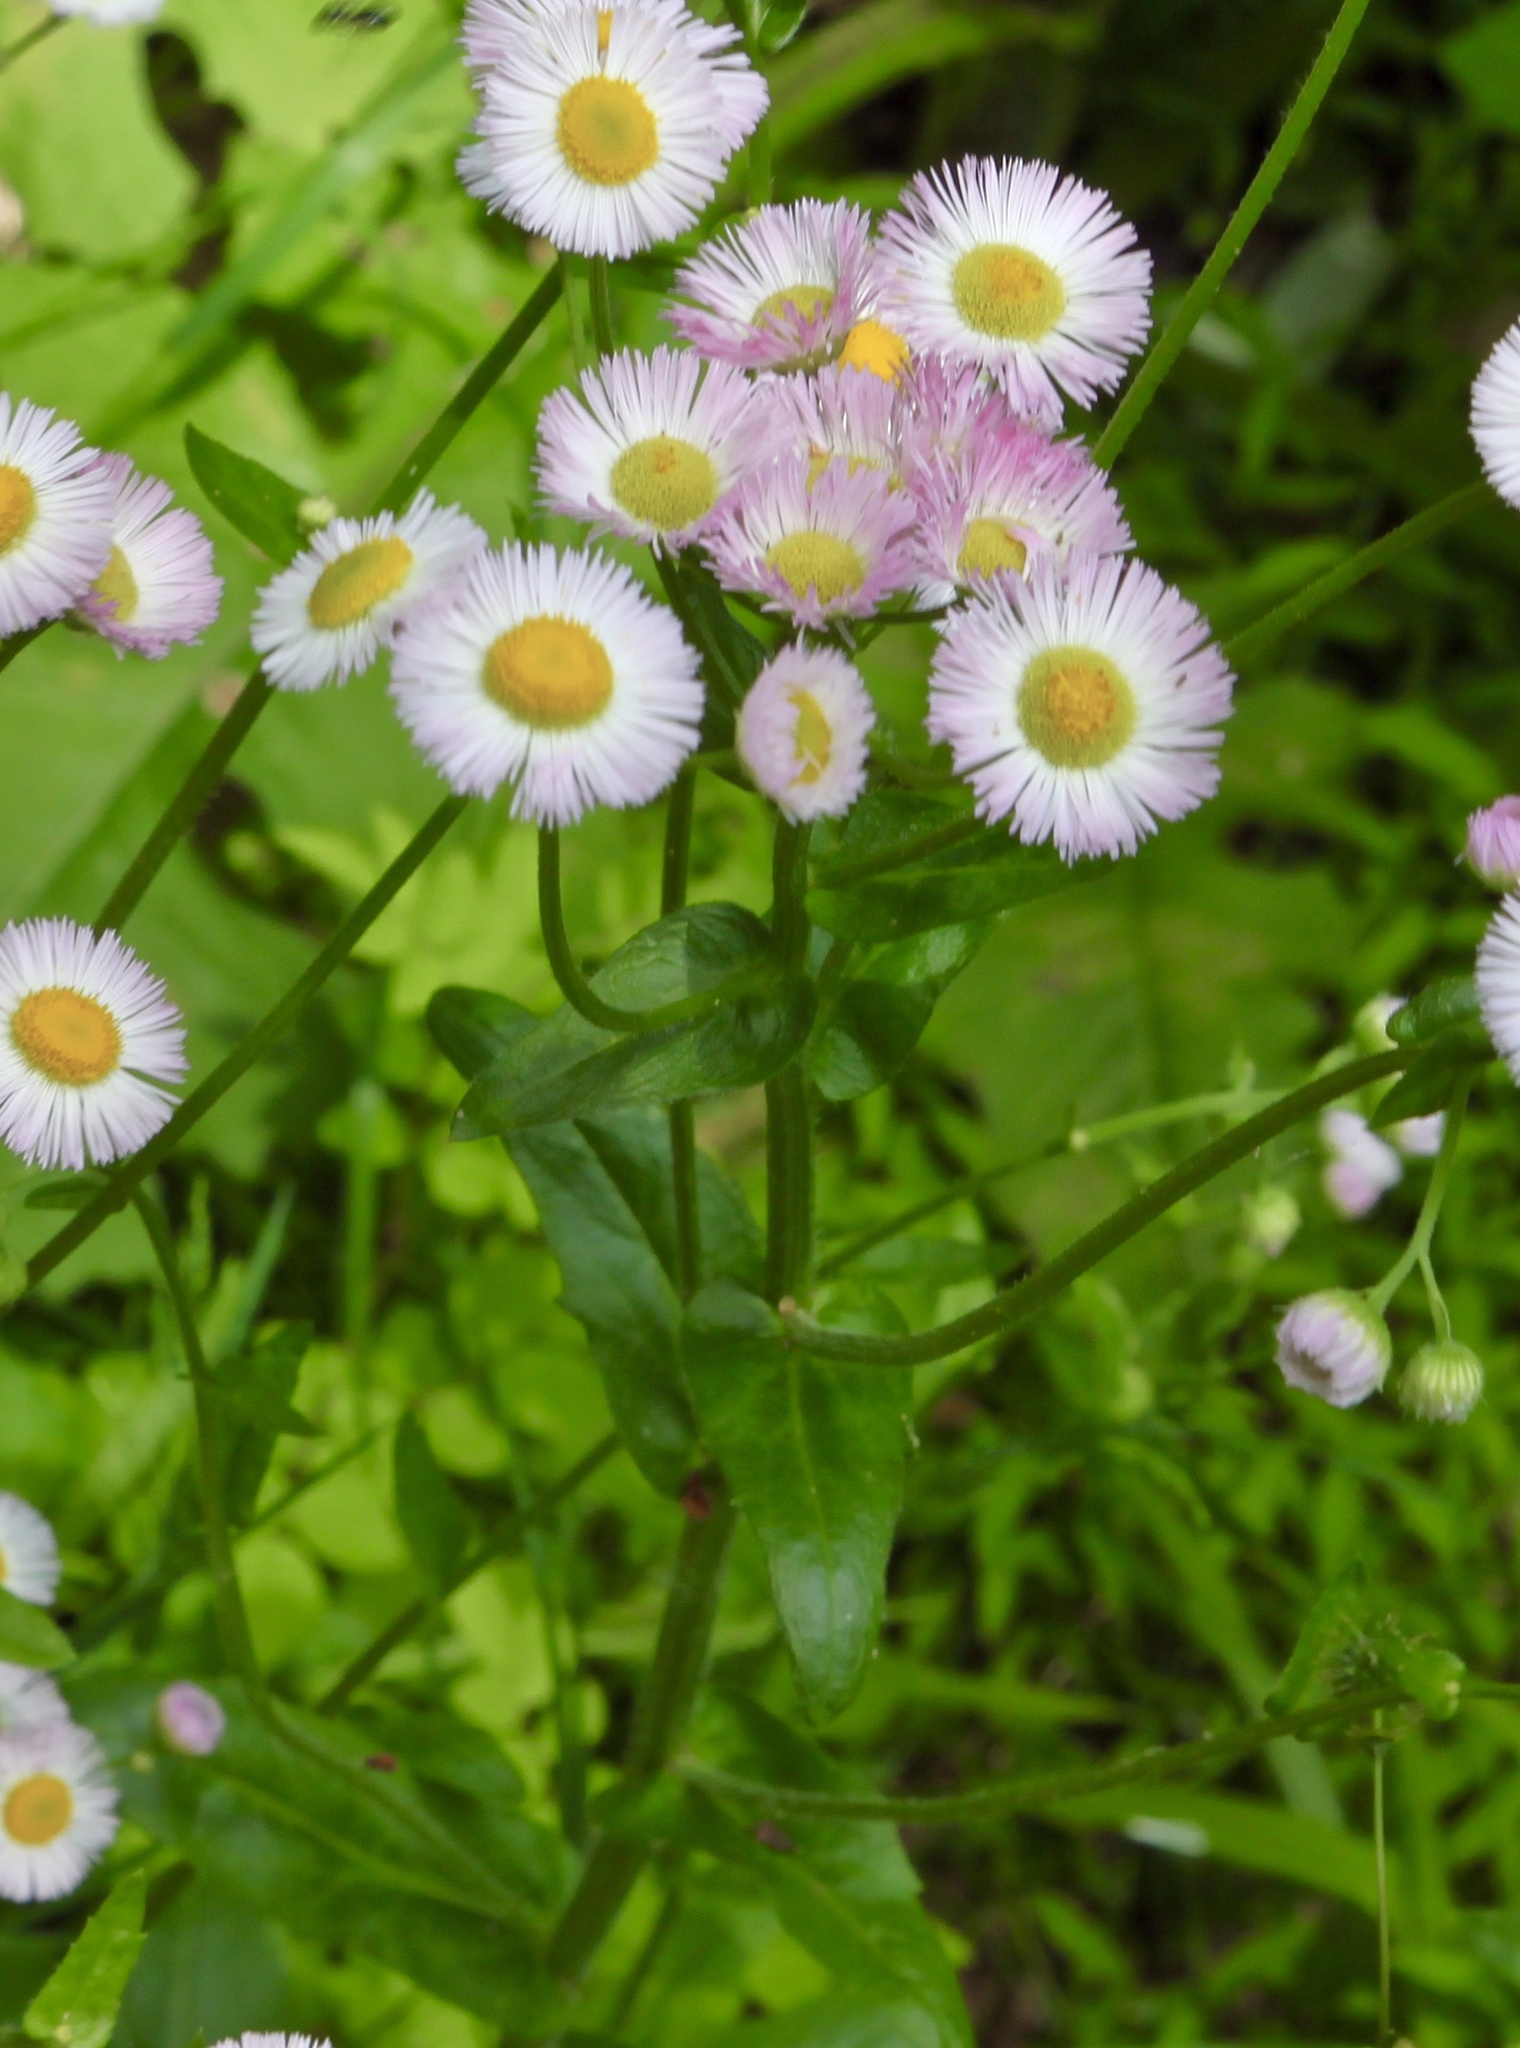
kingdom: Plantae
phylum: Tracheophyta
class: Magnoliopsida
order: Asterales
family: Asteraceae
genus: Erigeron
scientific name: Erigeron philadelphicus
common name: Robin's-plantain
